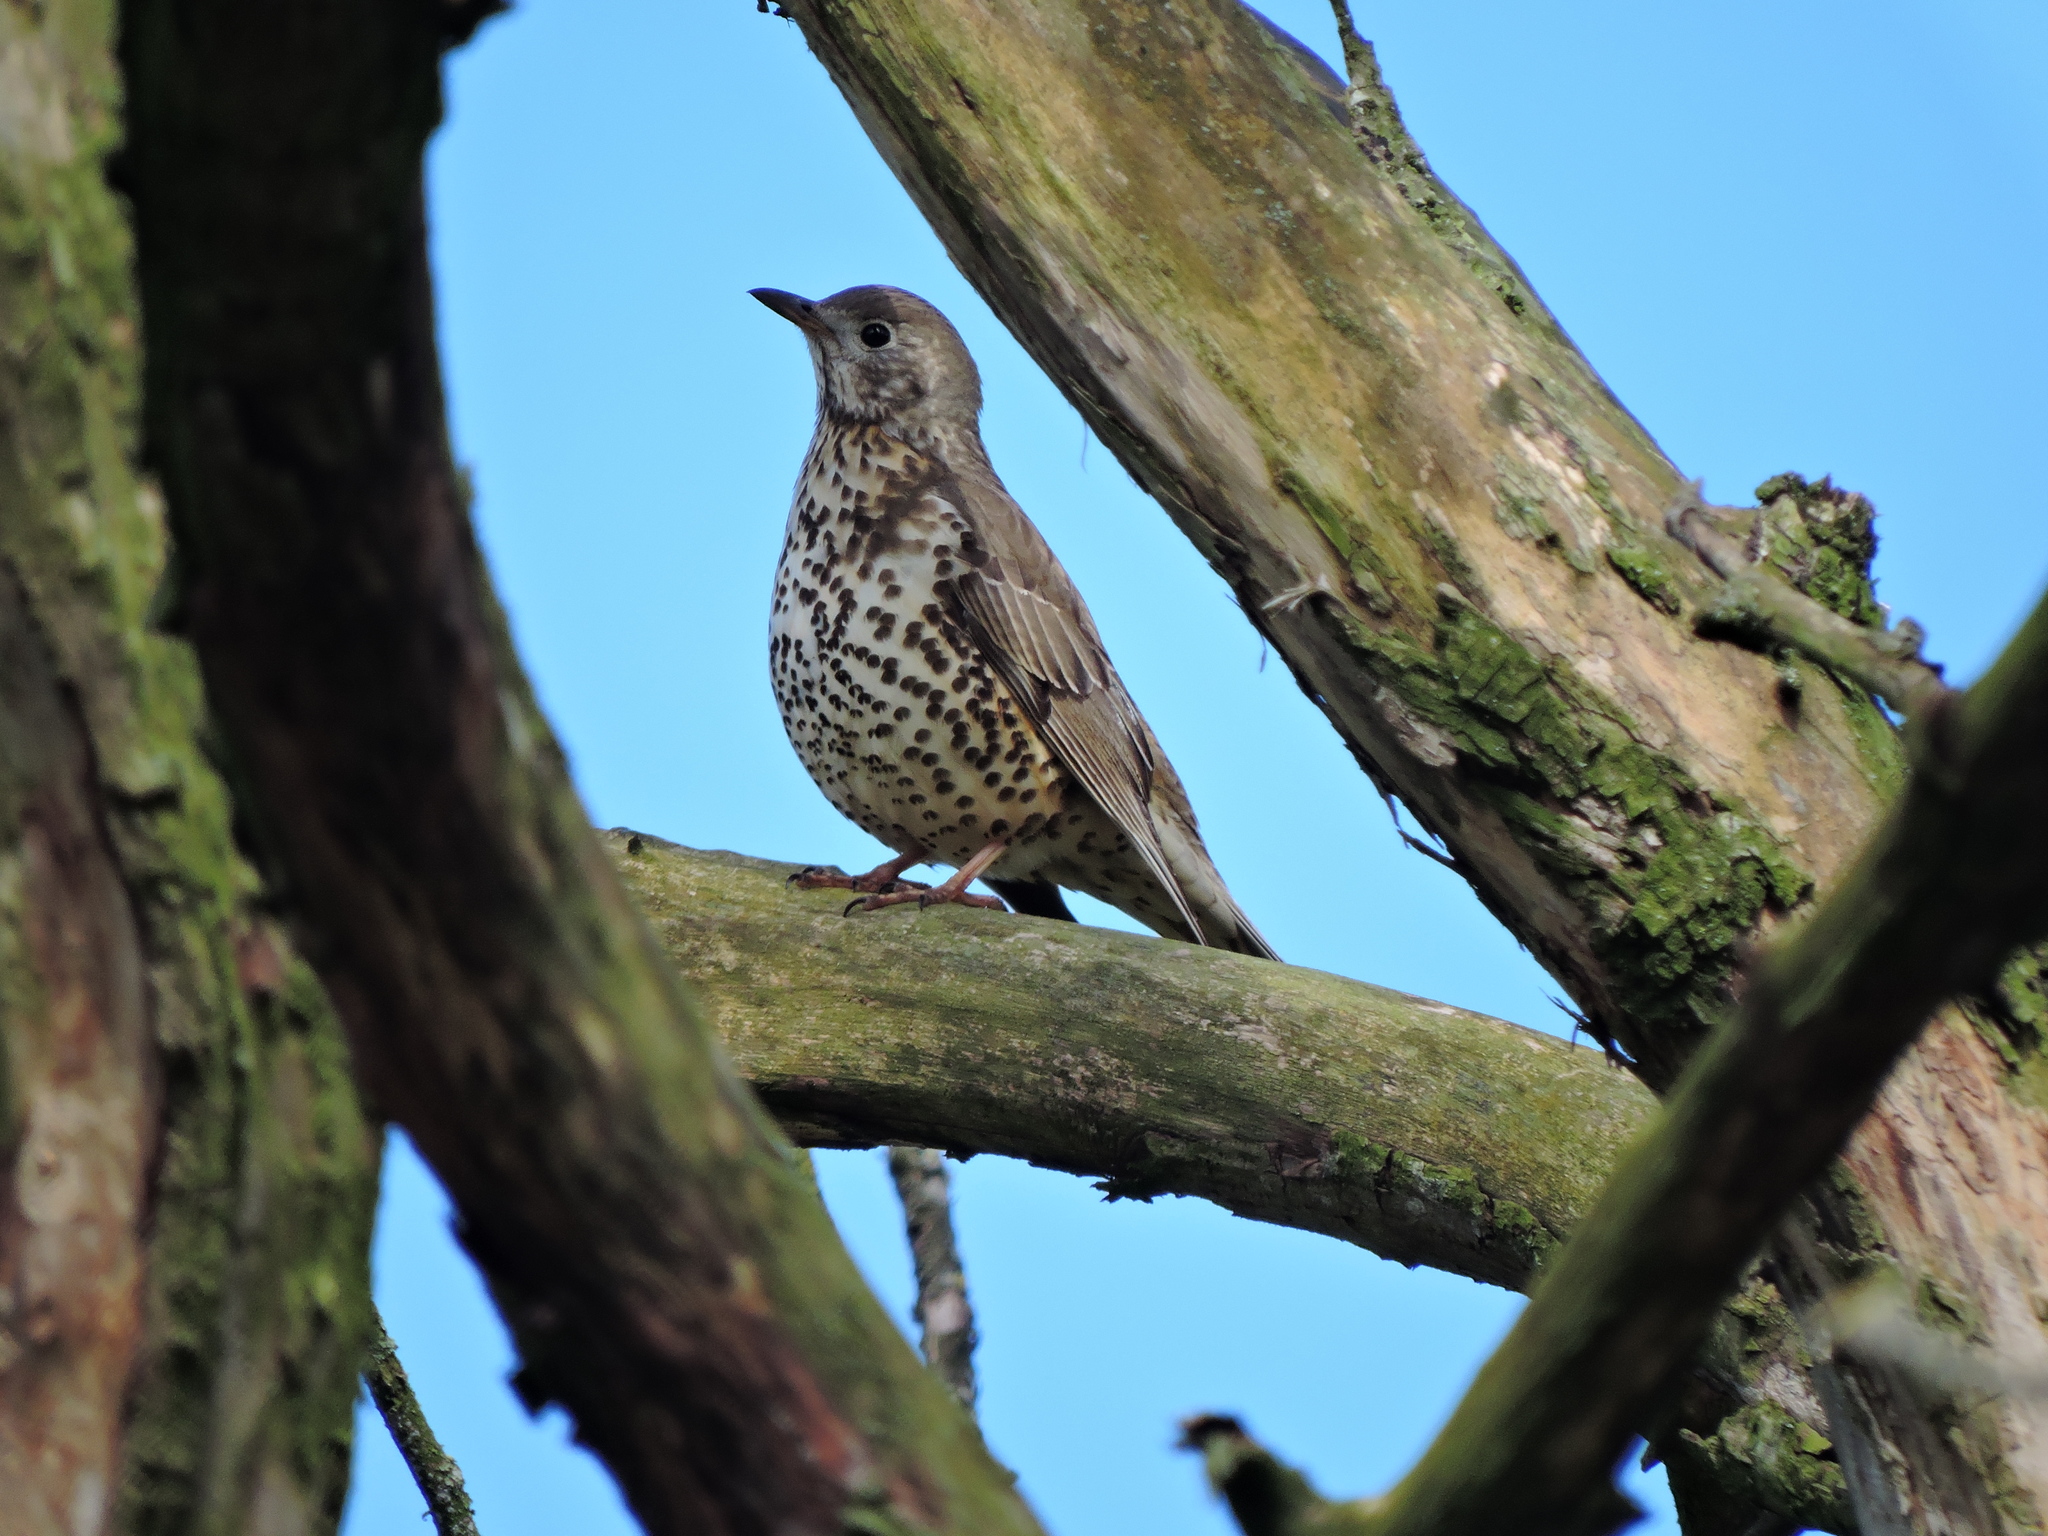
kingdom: Animalia
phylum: Chordata
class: Aves
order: Passeriformes
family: Turdidae
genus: Turdus
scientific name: Turdus viscivorus
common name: Mistle thrush
